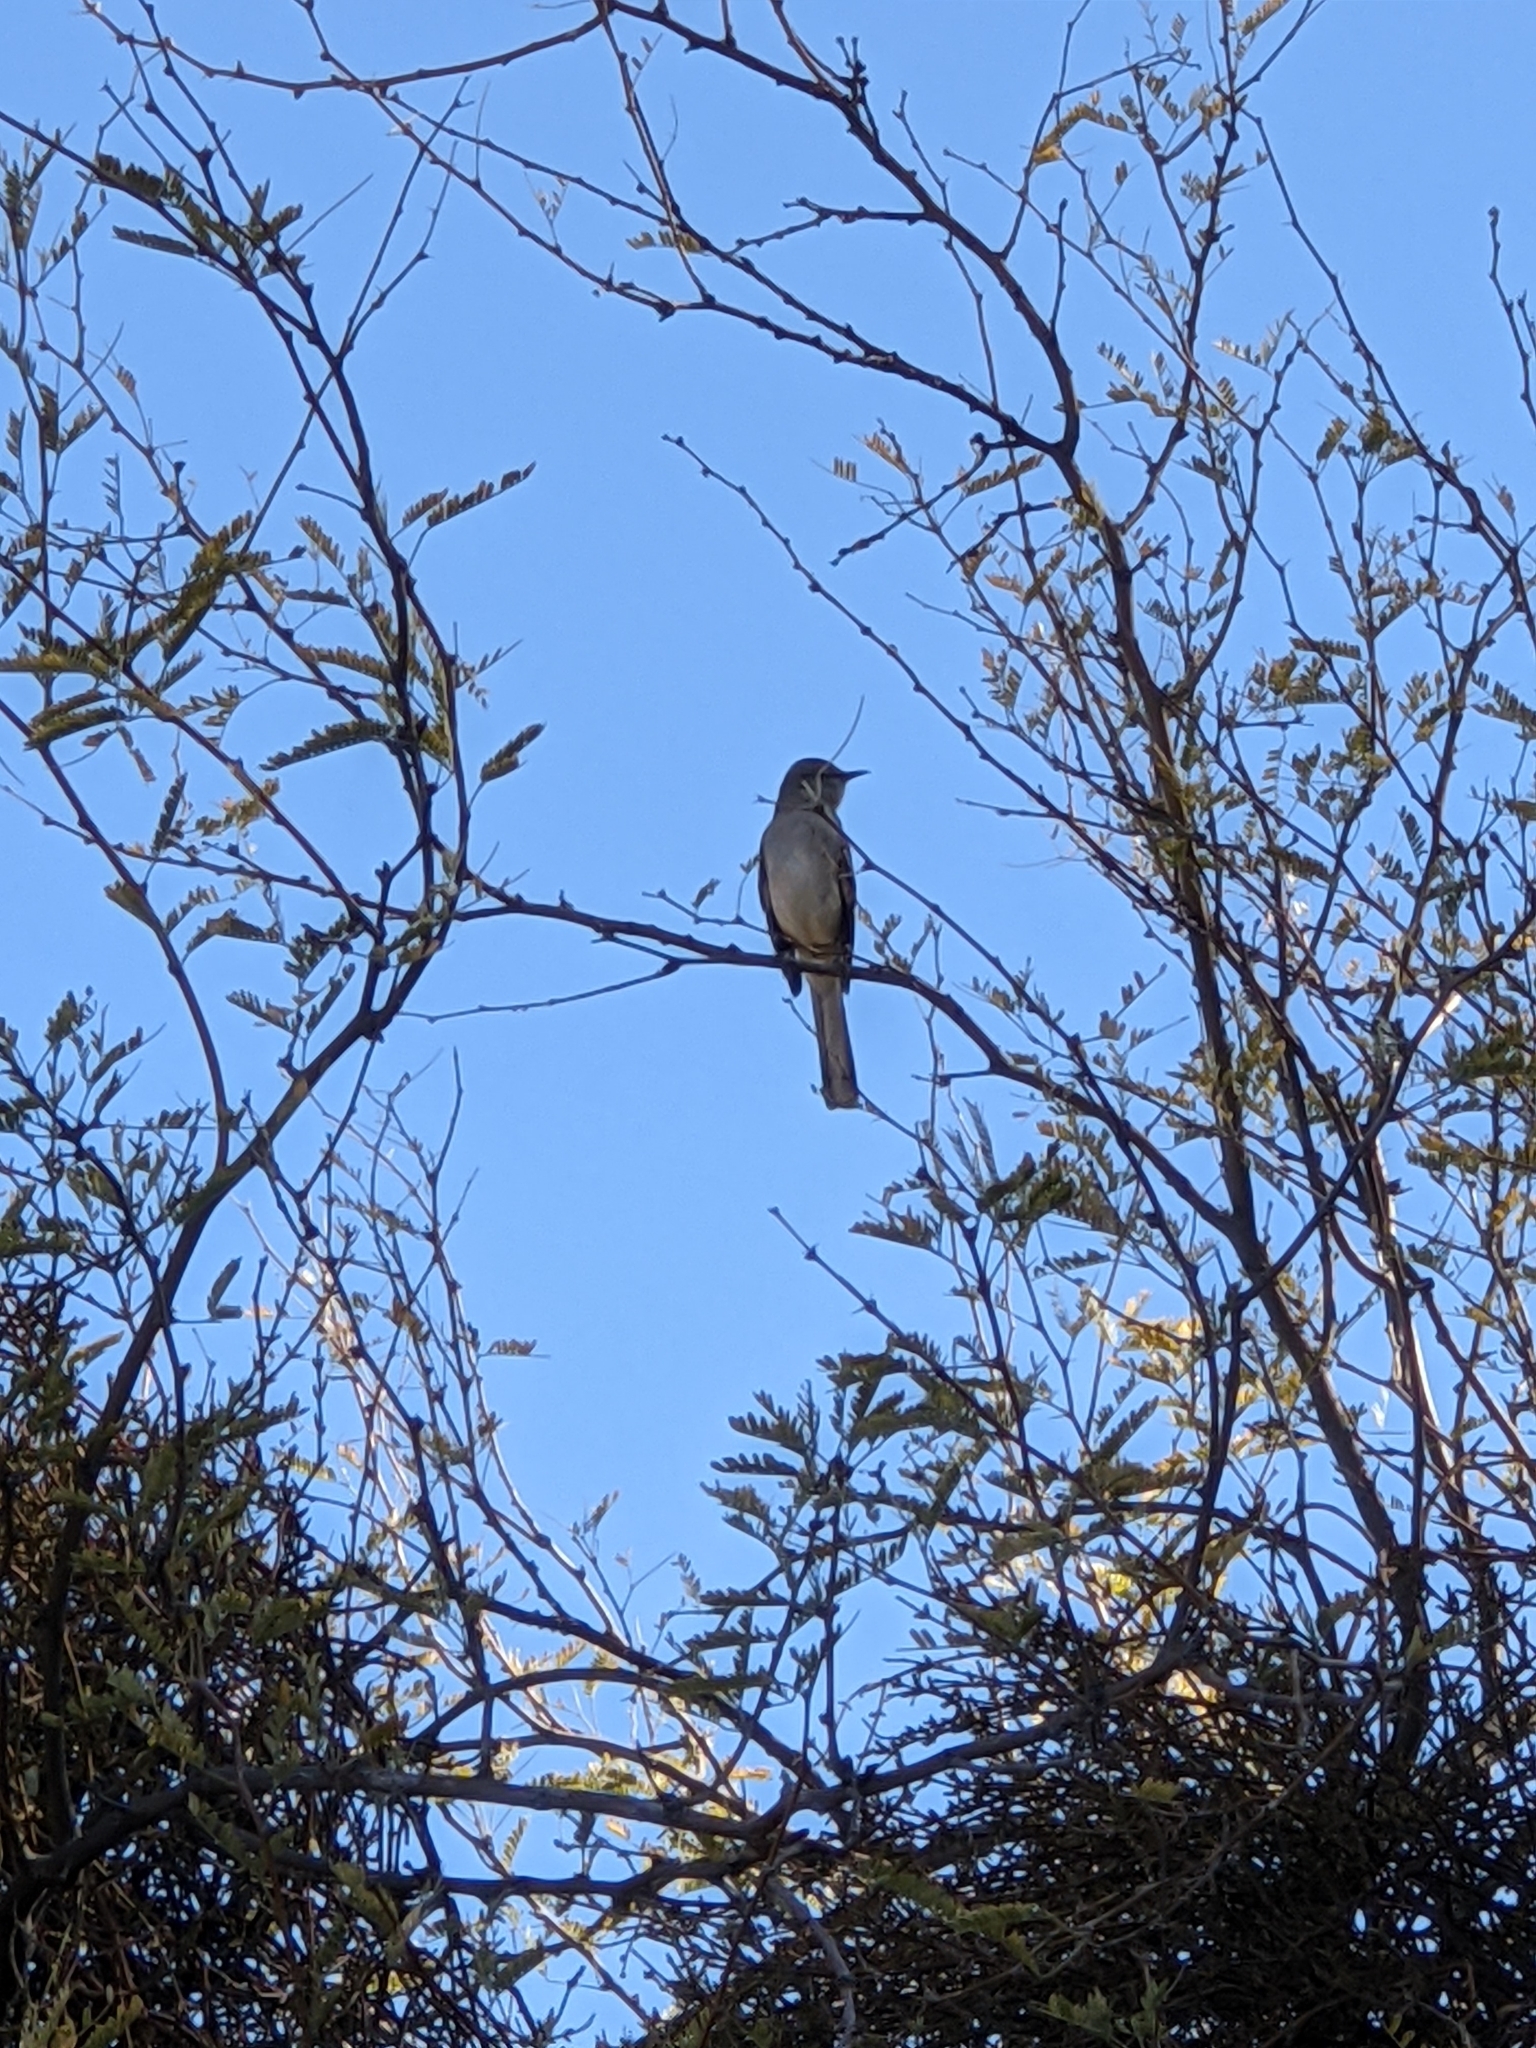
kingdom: Animalia
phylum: Chordata
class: Aves
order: Passeriformes
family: Mimidae
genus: Mimus
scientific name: Mimus polyglottos
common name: Northern mockingbird
